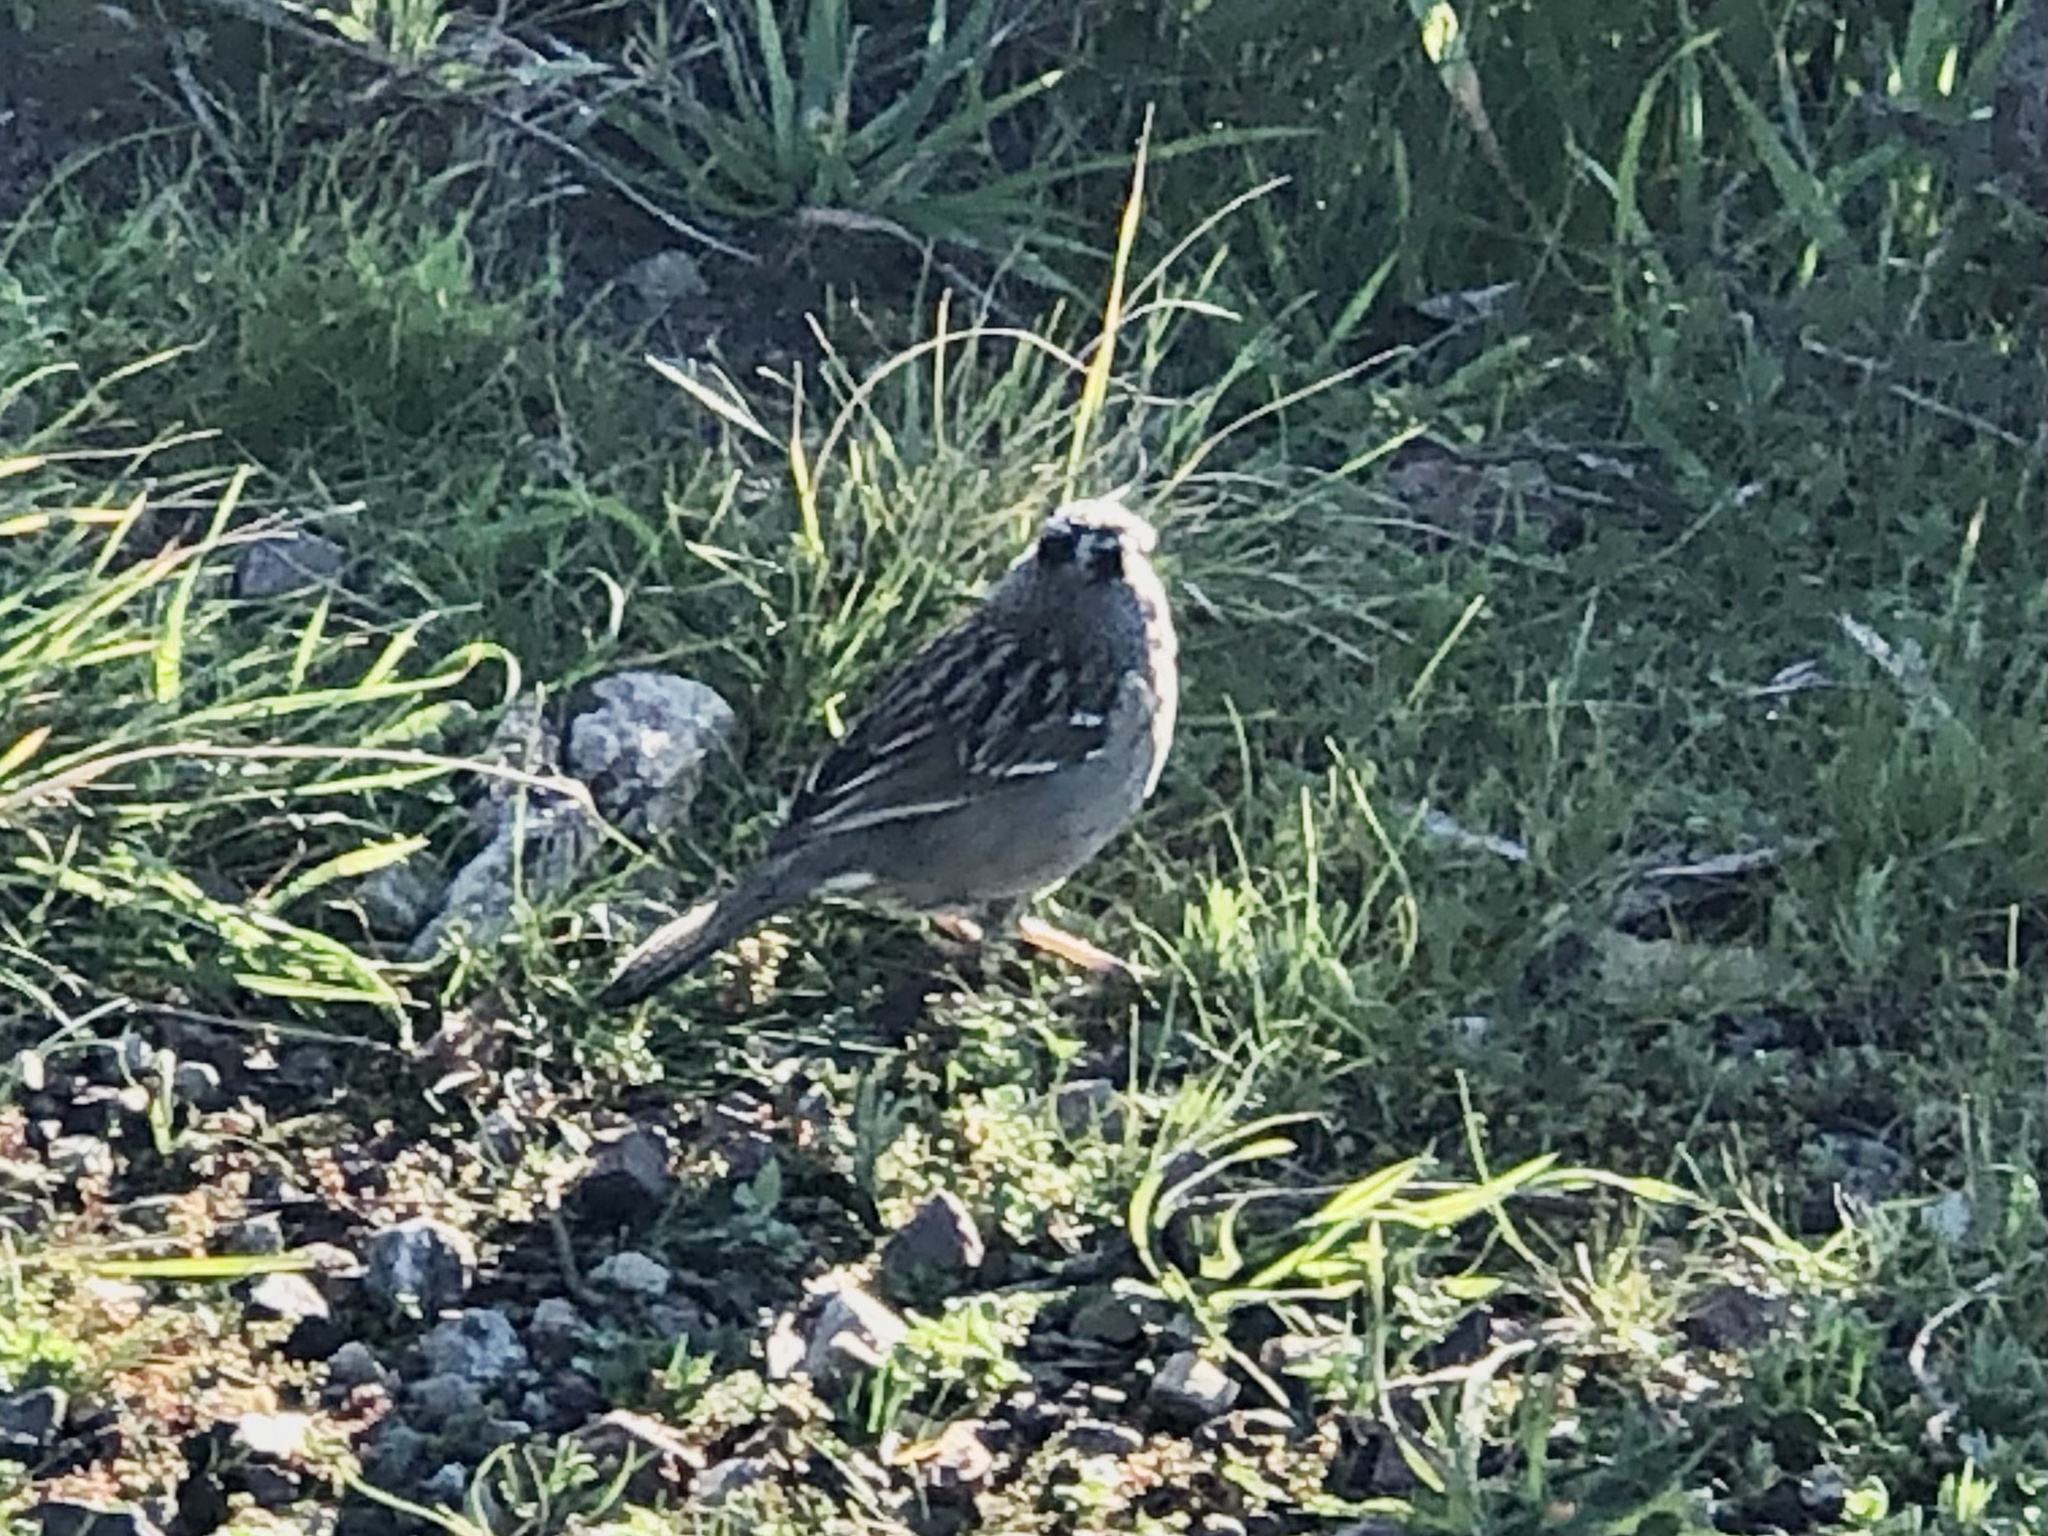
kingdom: Animalia
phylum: Chordata
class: Aves
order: Passeriformes
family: Passerellidae
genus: Zonotrichia
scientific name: Zonotrichia leucophrys
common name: White-crowned sparrow
